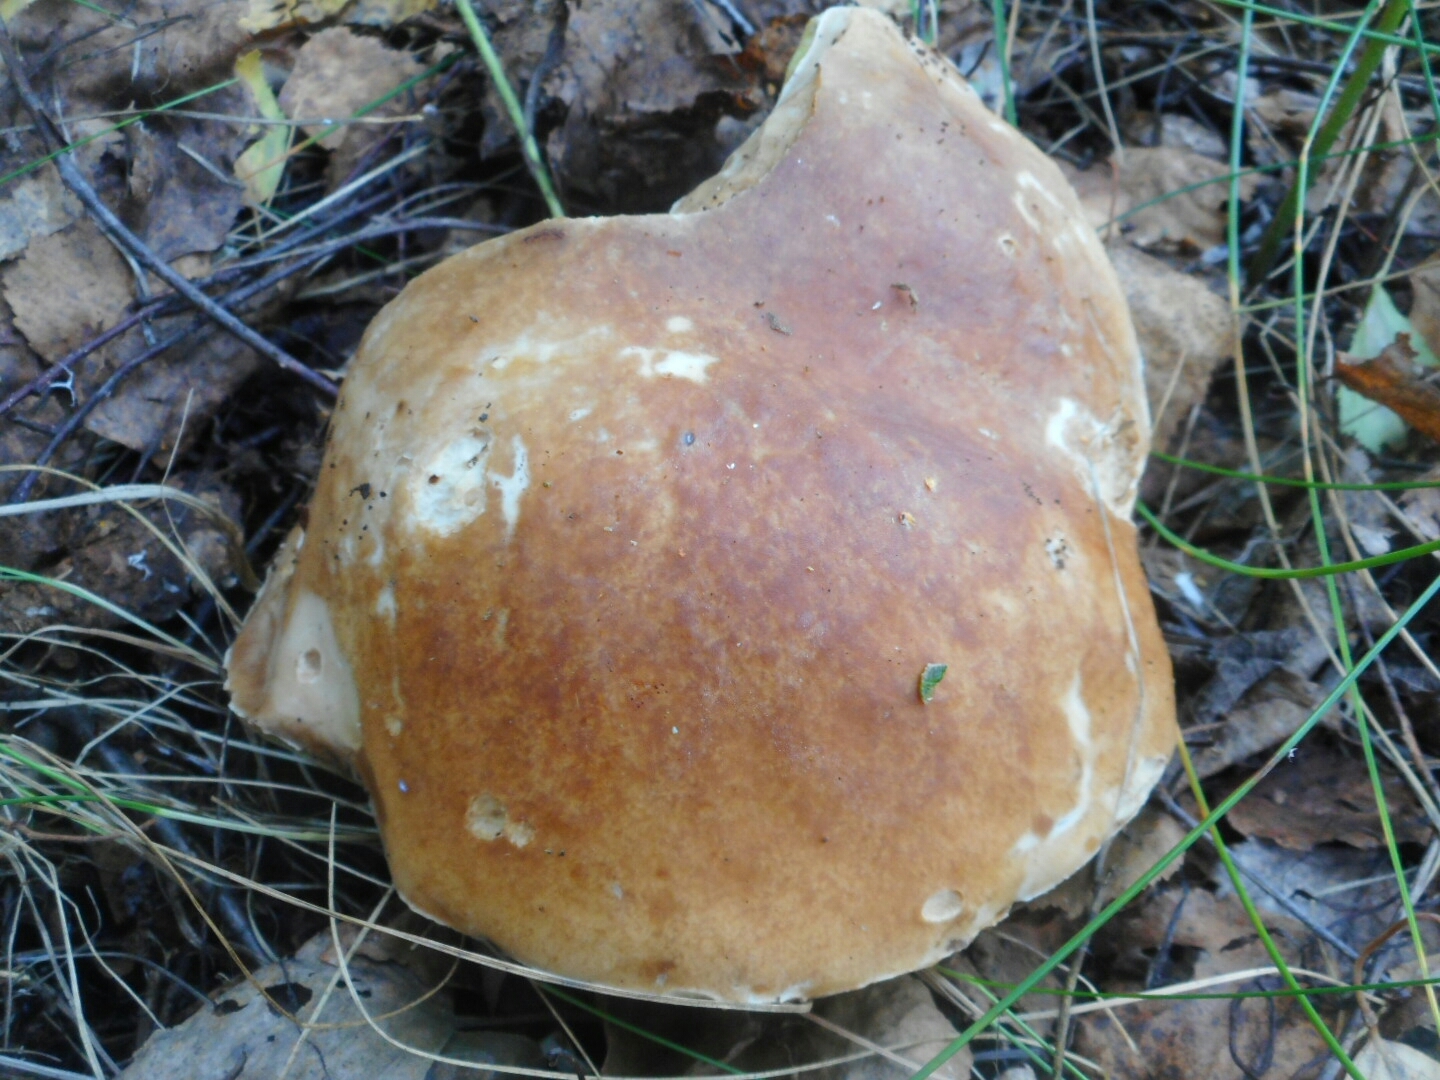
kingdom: Fungi
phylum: Basidiomycota
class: Agaricomycetes
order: Boletales
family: Boletaceae
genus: Boletus
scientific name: Boletus edulis
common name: Cep
